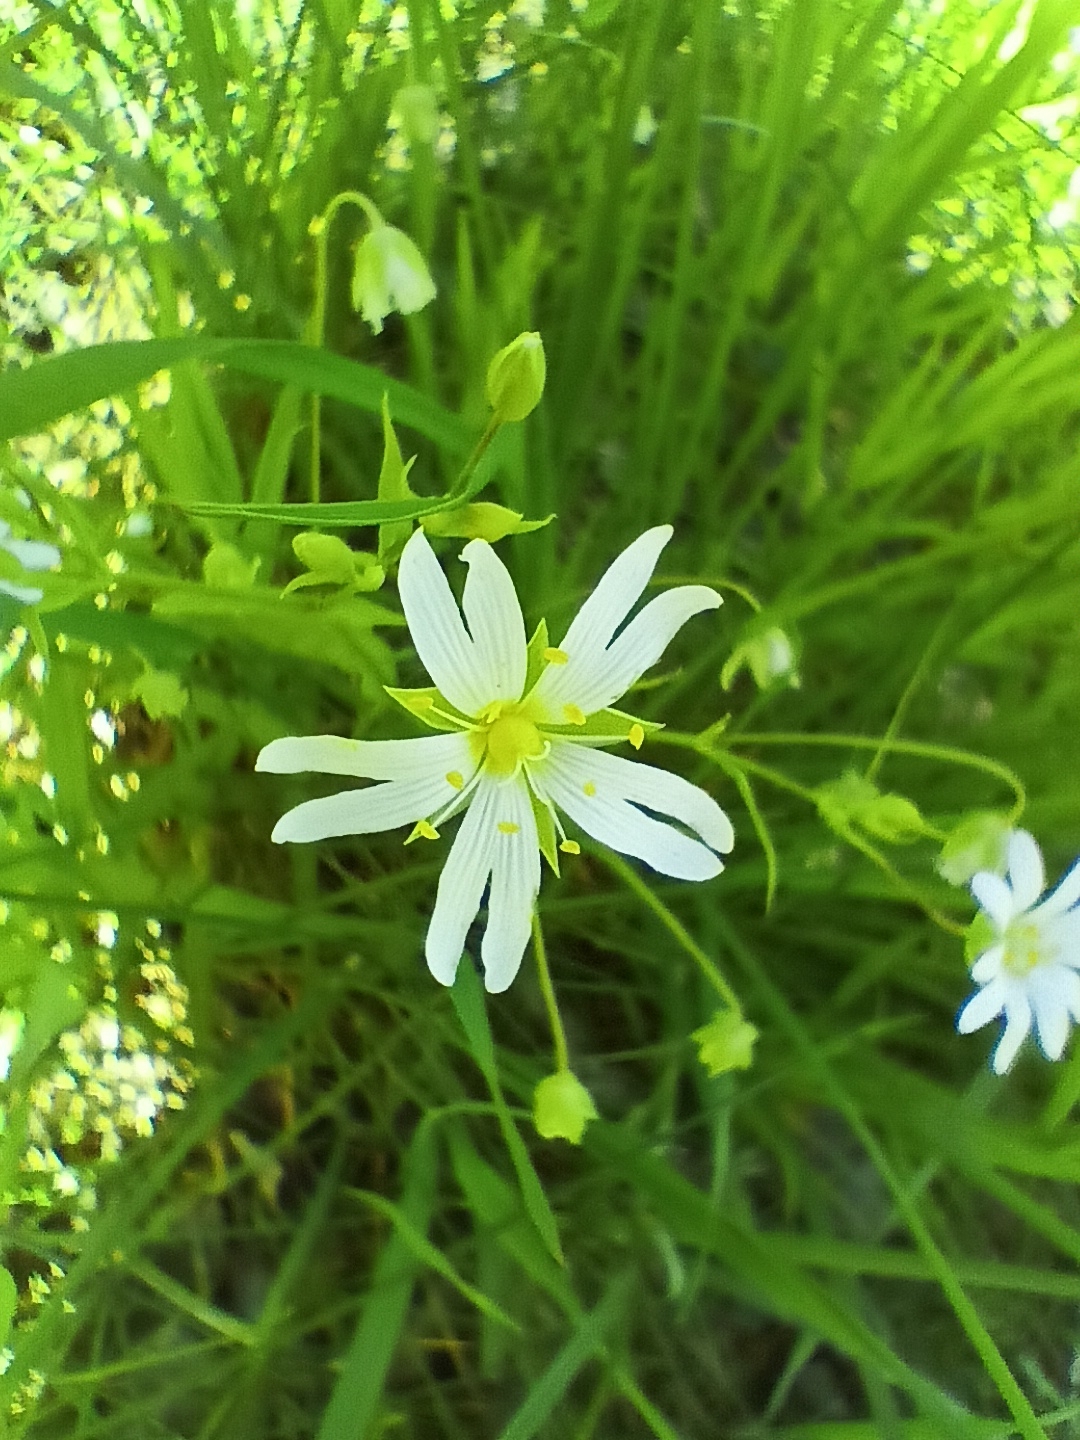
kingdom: Plantae
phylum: Tracheophyta
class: Magnoliopsida
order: Caryophyllales
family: Caryophyllaceae
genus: Rabelera
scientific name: Rabelera holostea
